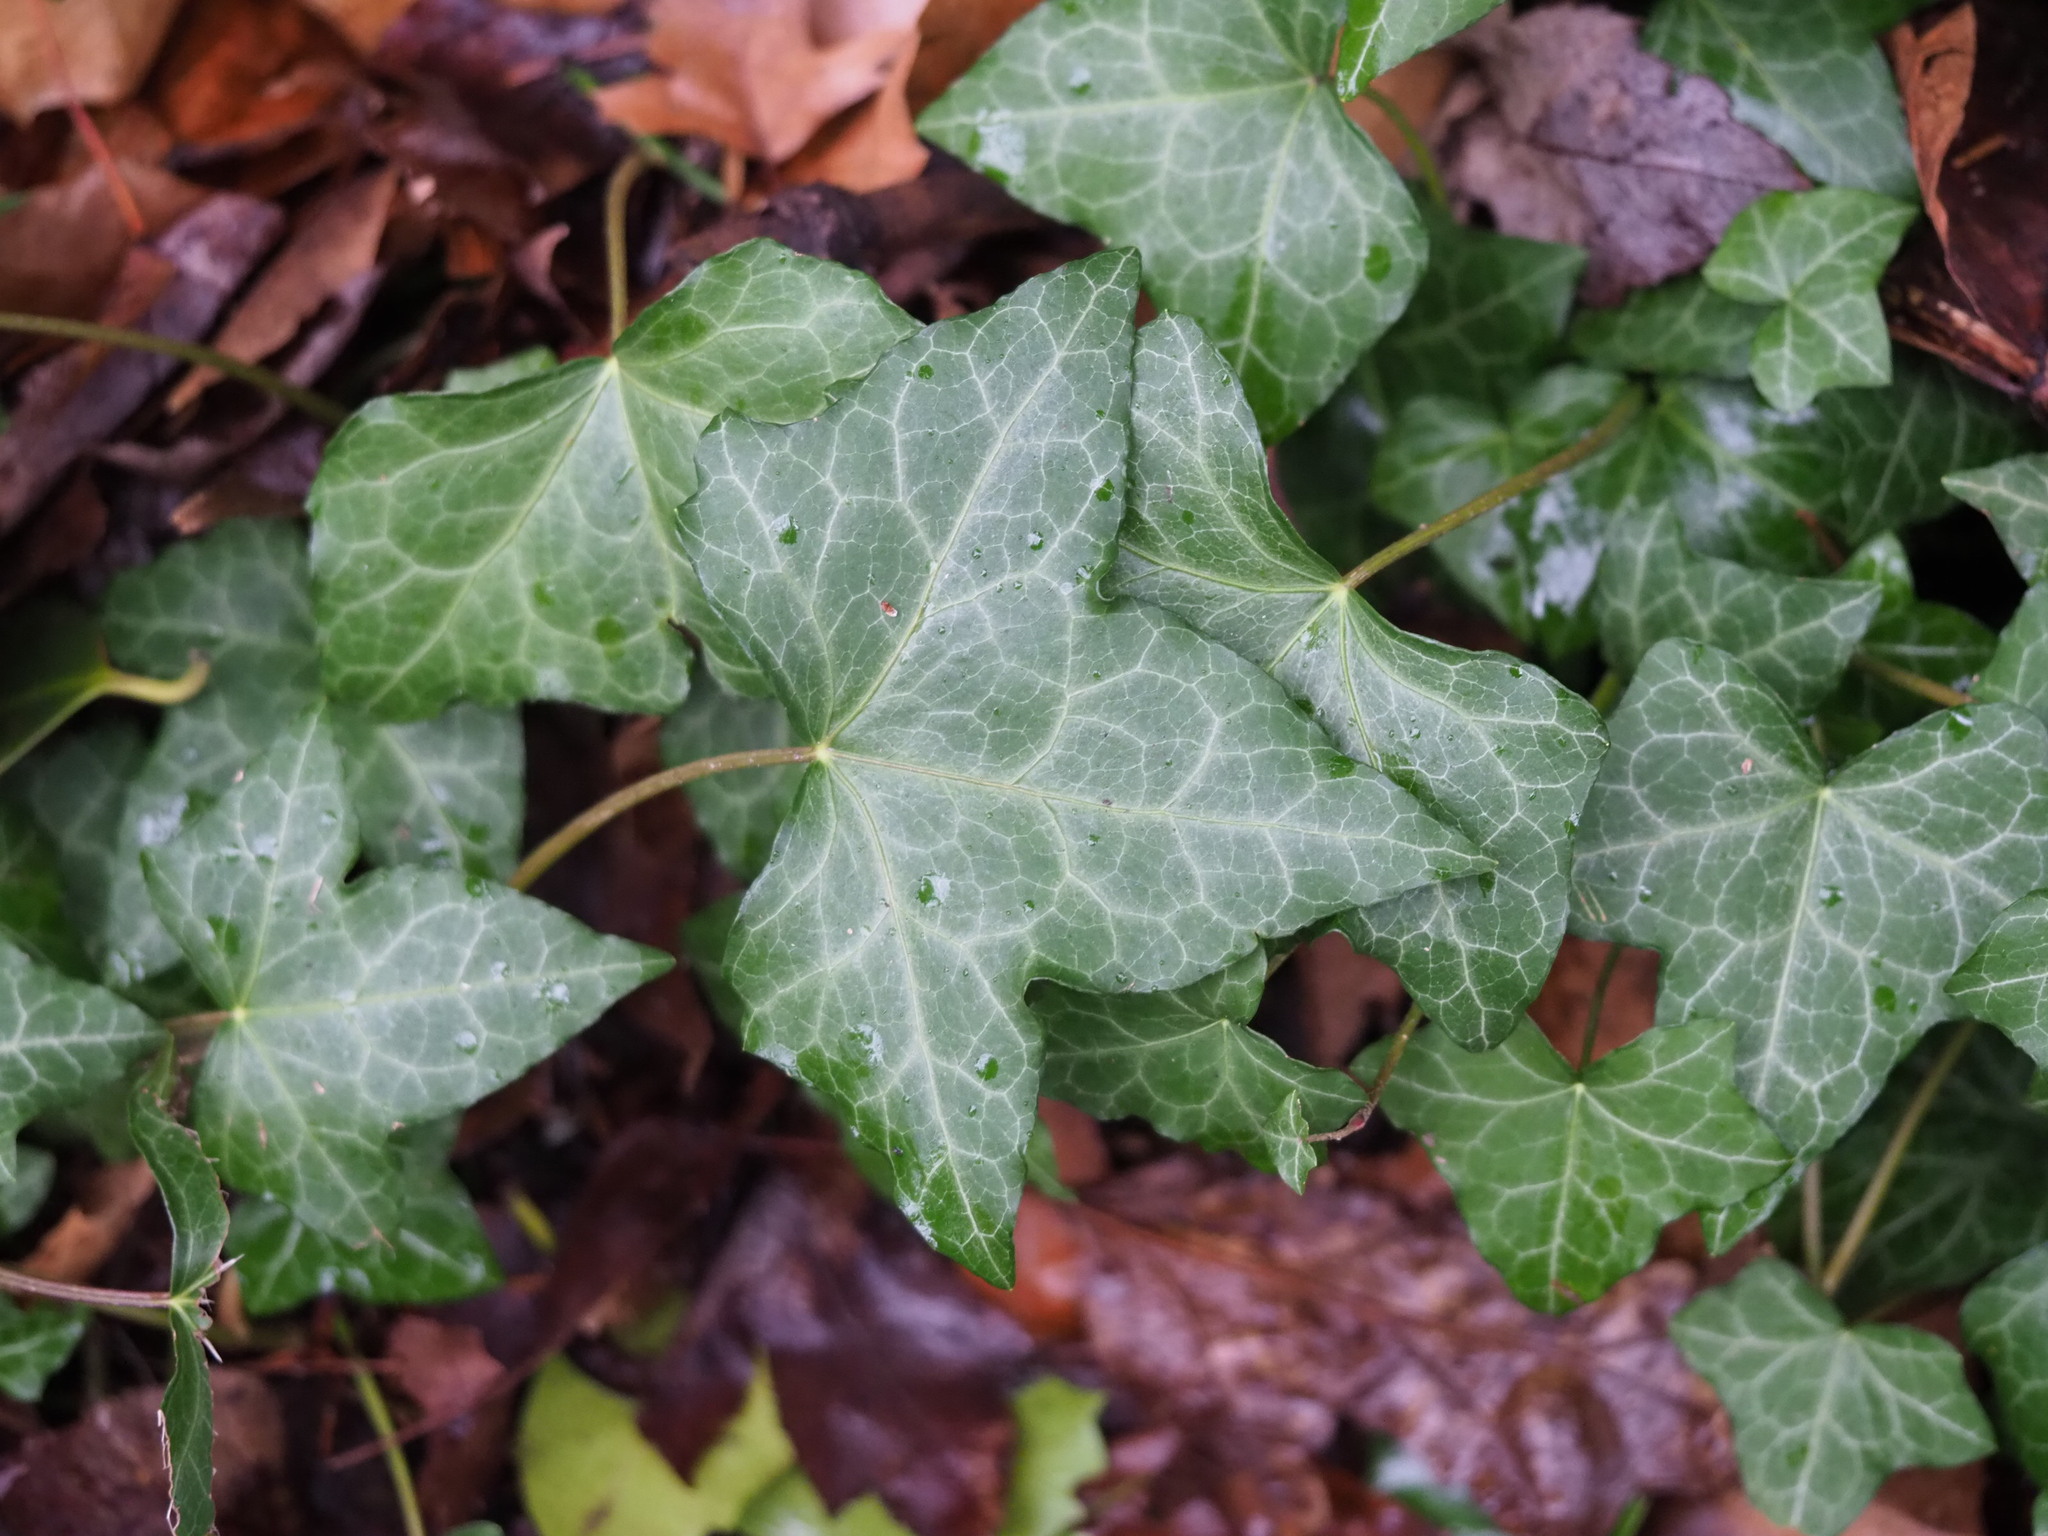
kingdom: Plantae
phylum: Tracheophyta
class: Magnoliopsida
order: Apiales
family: Araliaceae
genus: Hedera
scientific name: Hedera helix
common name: Ivy
